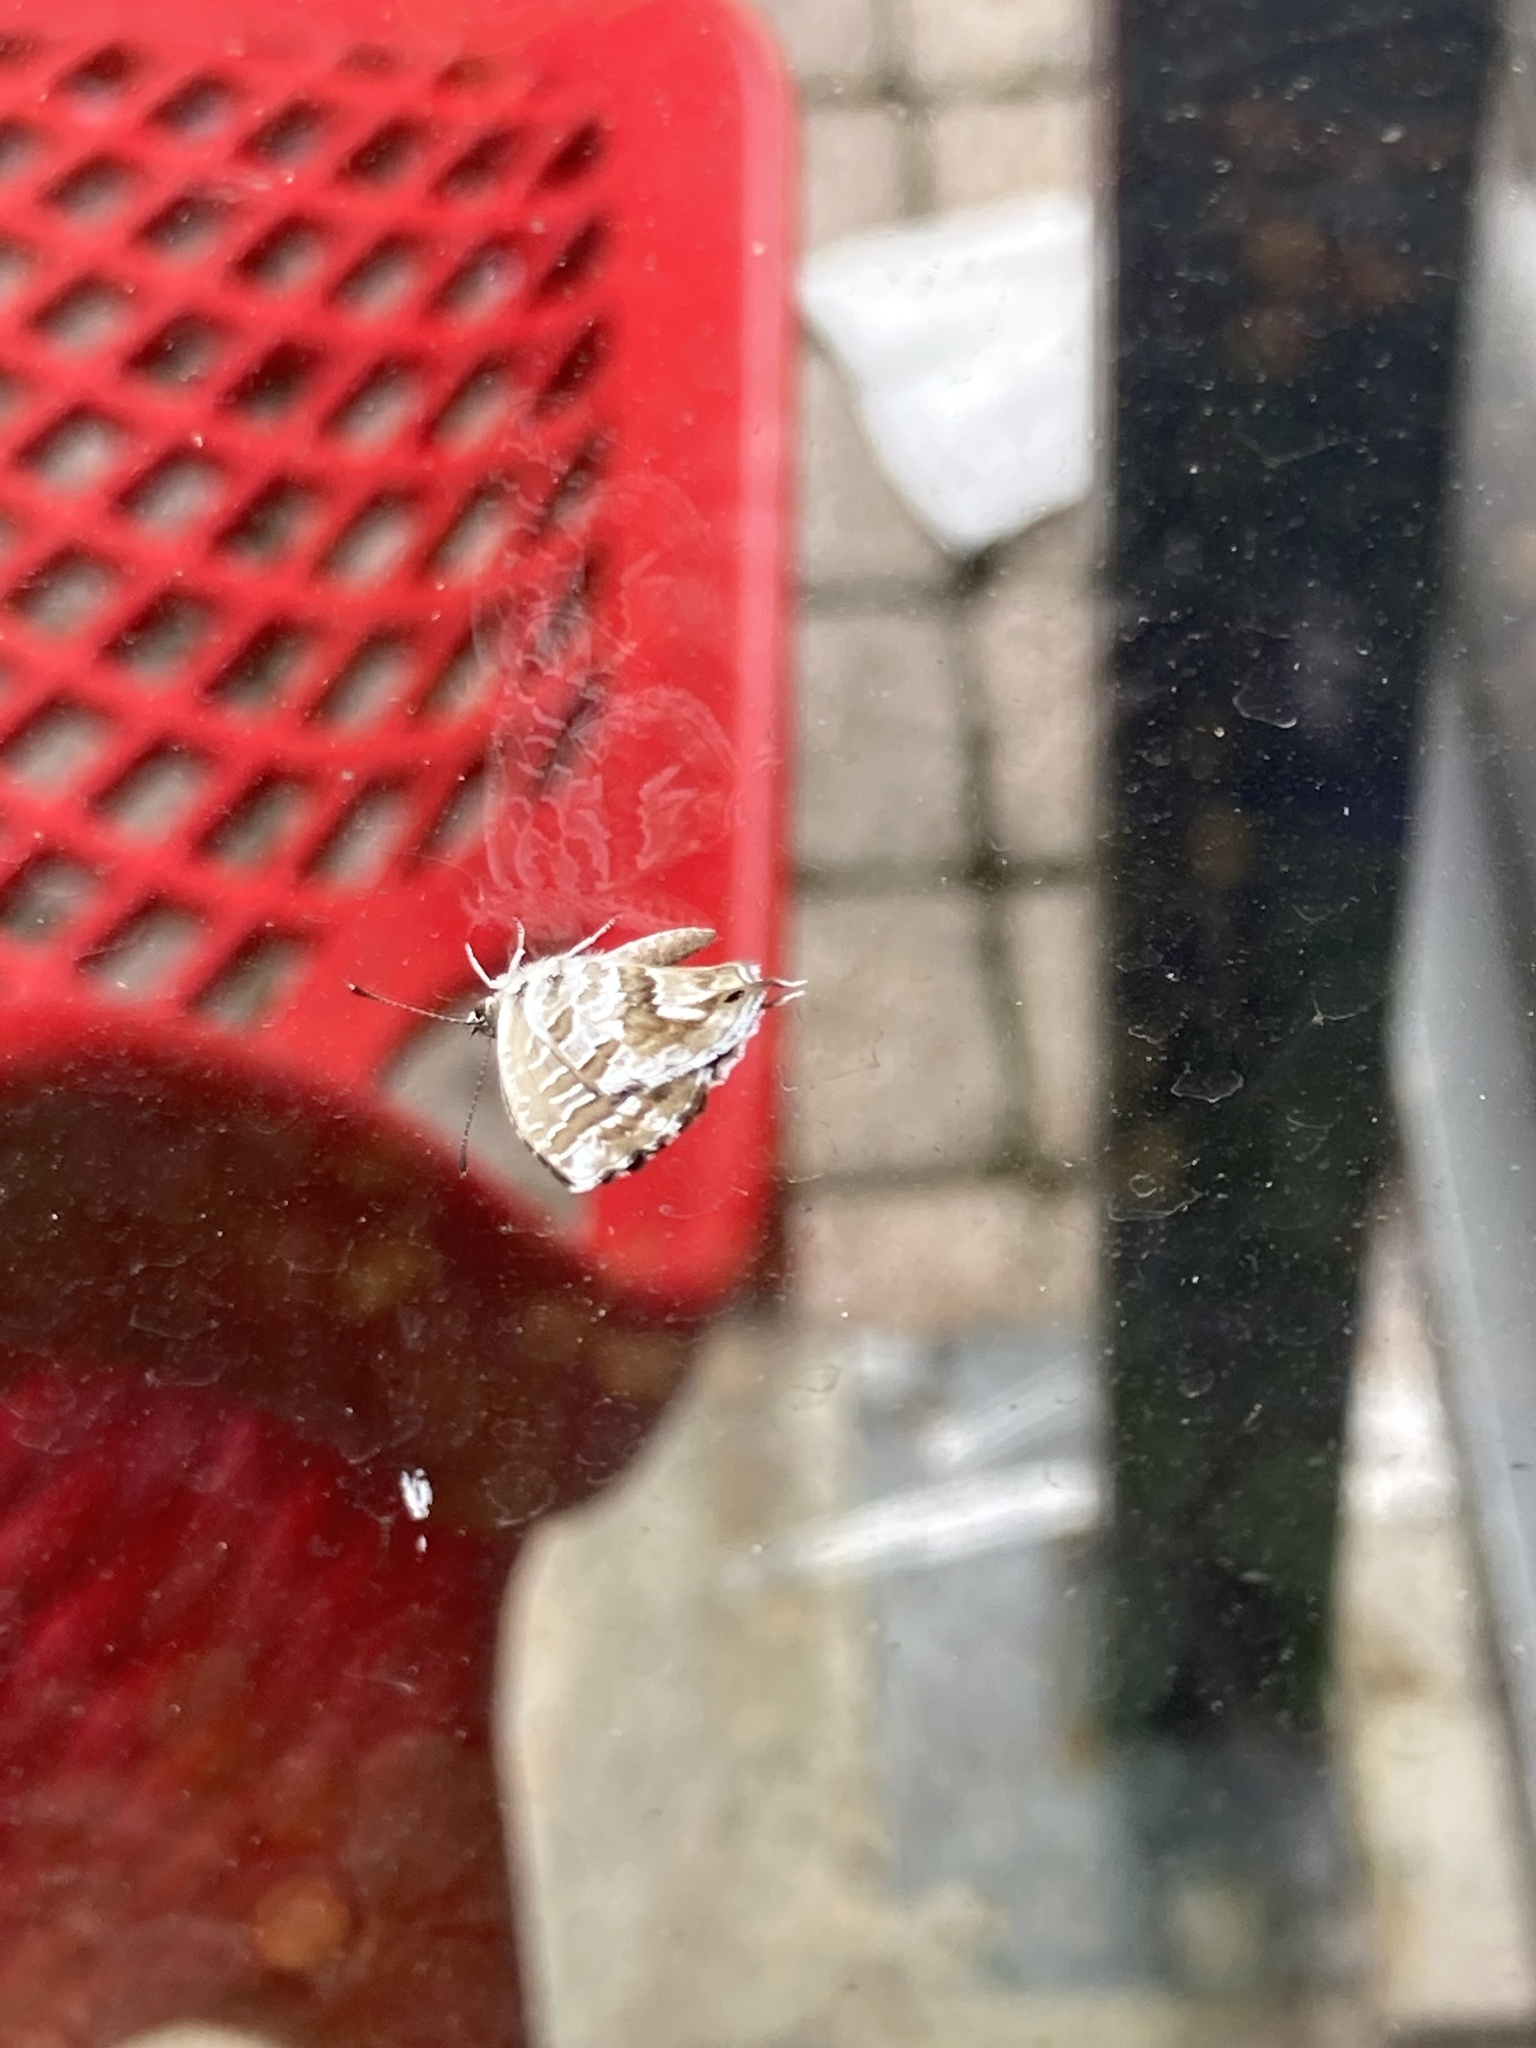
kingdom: Animalia
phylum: Arthropoda
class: Insecta
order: Lepidoptera
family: Lycaenidae
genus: Cacyreus
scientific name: Cacyreus marshalli
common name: Geranium bronze
